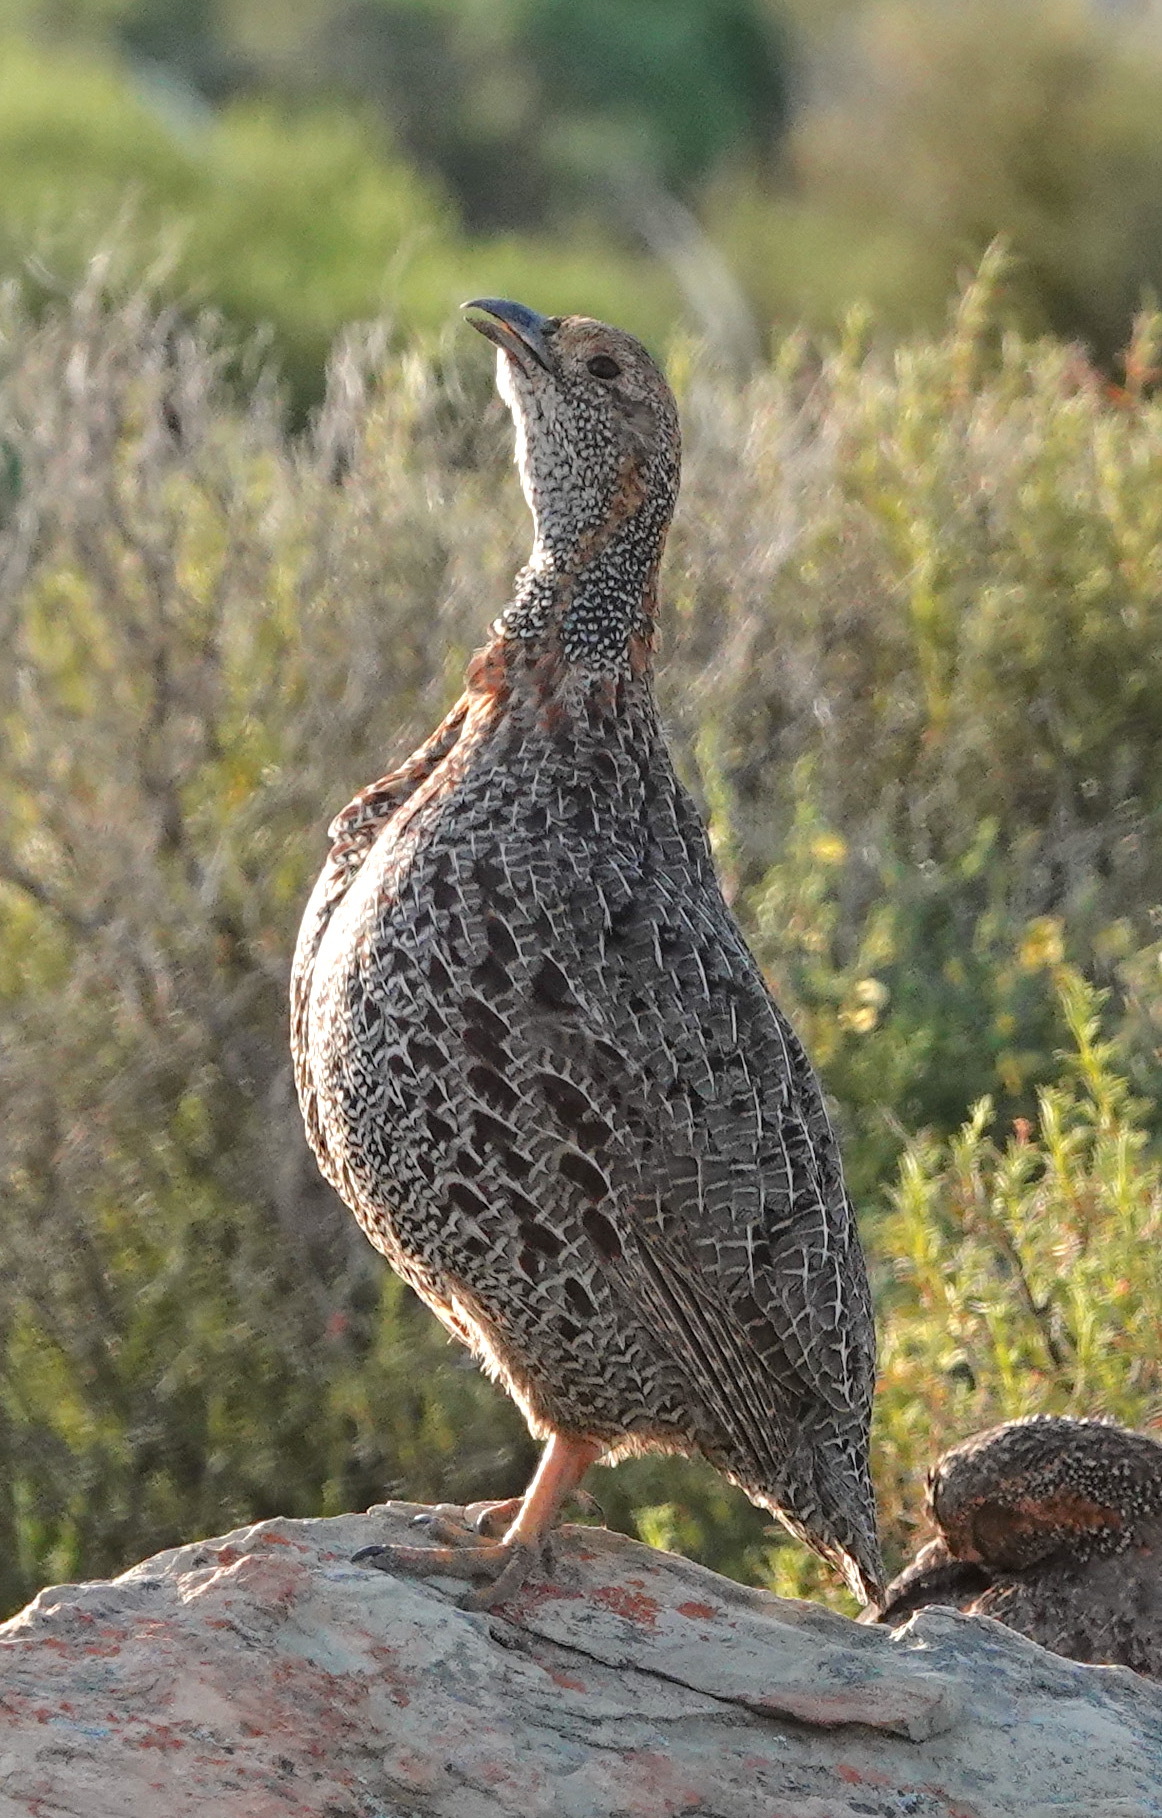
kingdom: Animalia
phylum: Chordata
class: Aves
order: Galliformes
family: Phasianidae
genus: Scleroptila
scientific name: Scleroptila afra
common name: Grey-winged francolin
